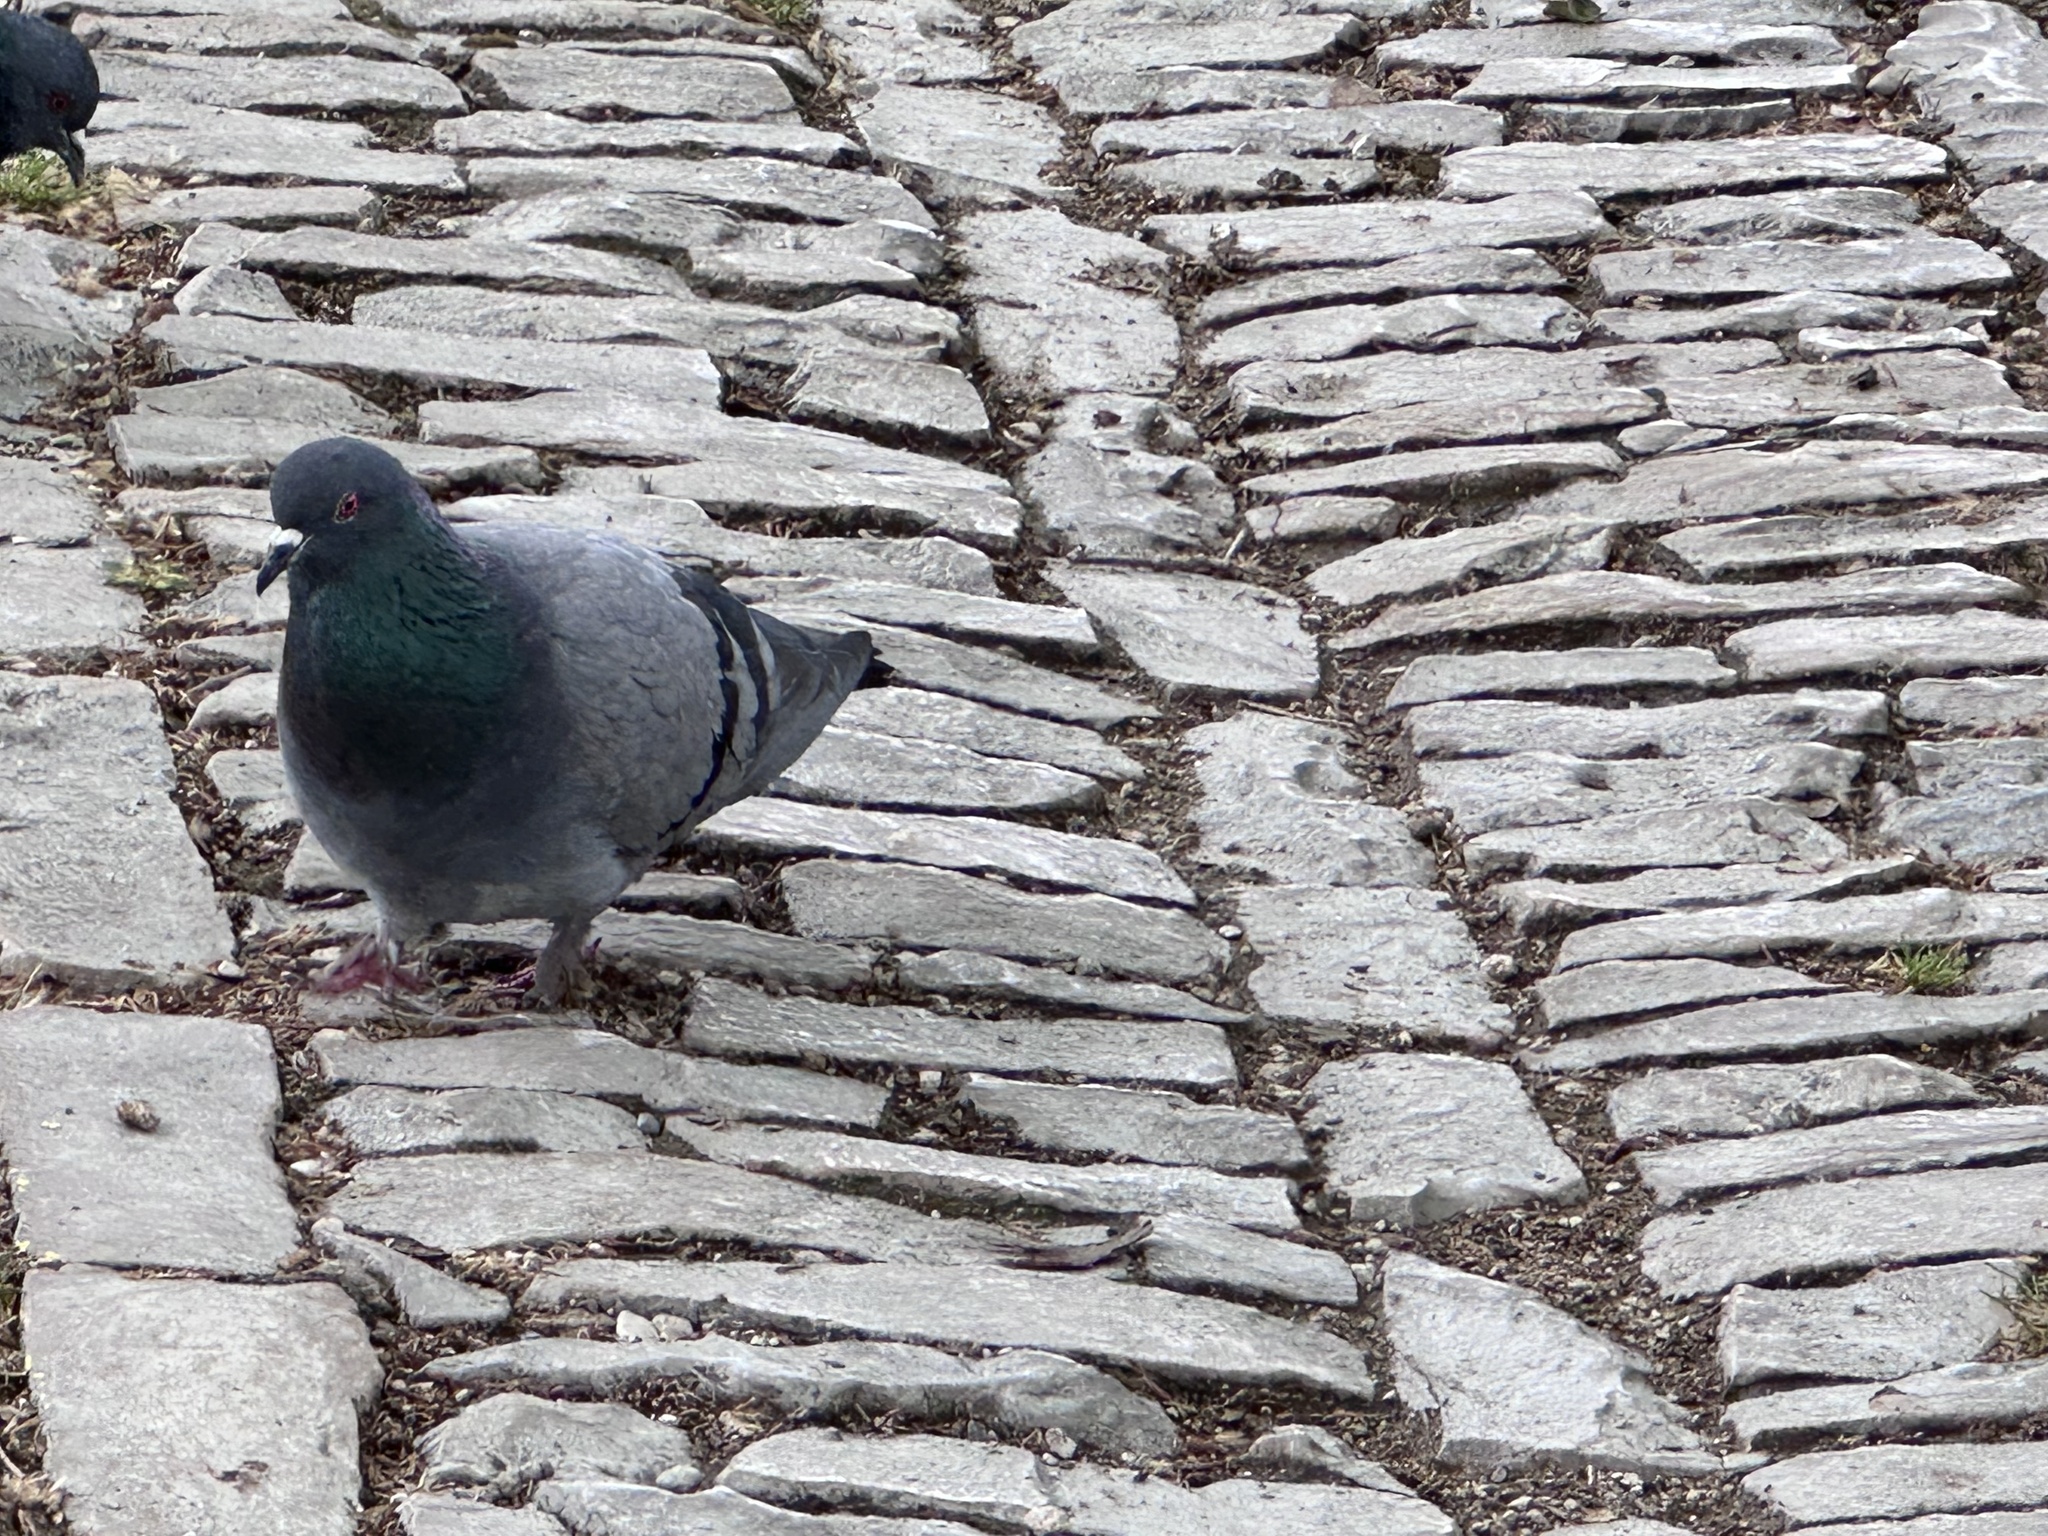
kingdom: Animalia
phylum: Chordata
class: Aves
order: Columbiformes
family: Columbidae
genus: Columba
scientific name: Columba livia
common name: Rock pigeon
